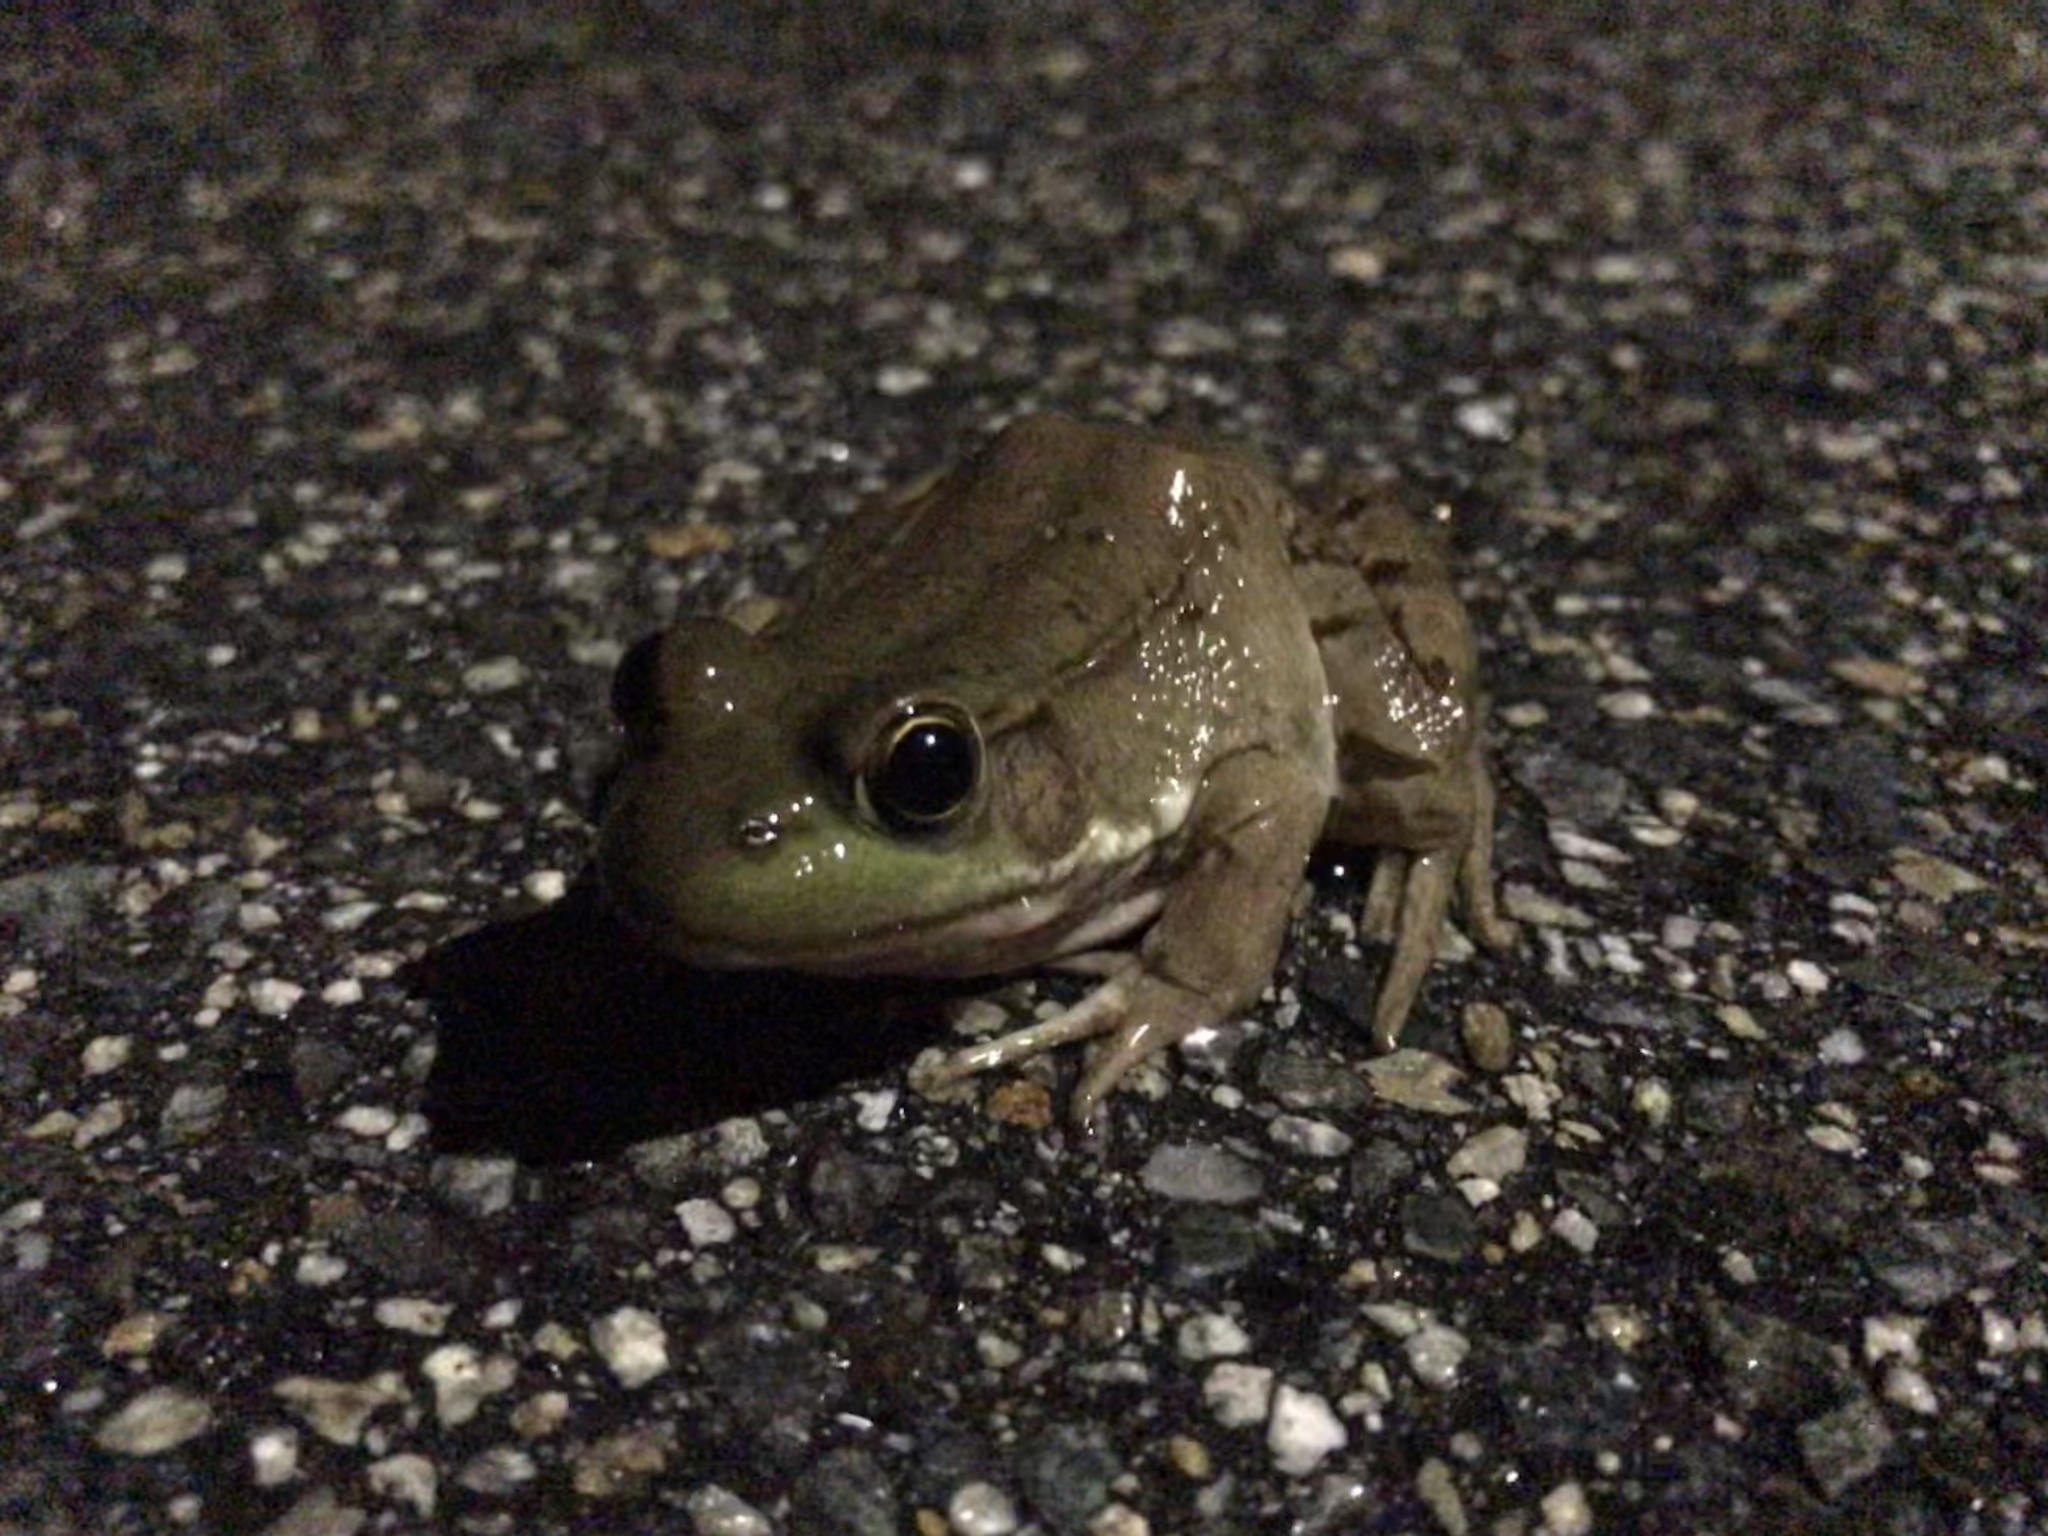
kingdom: Animalia
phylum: Chordata
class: Amphibia
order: Anura
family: Ranidae
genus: Lithobates
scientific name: Lithobates clamitans
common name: Green frog
